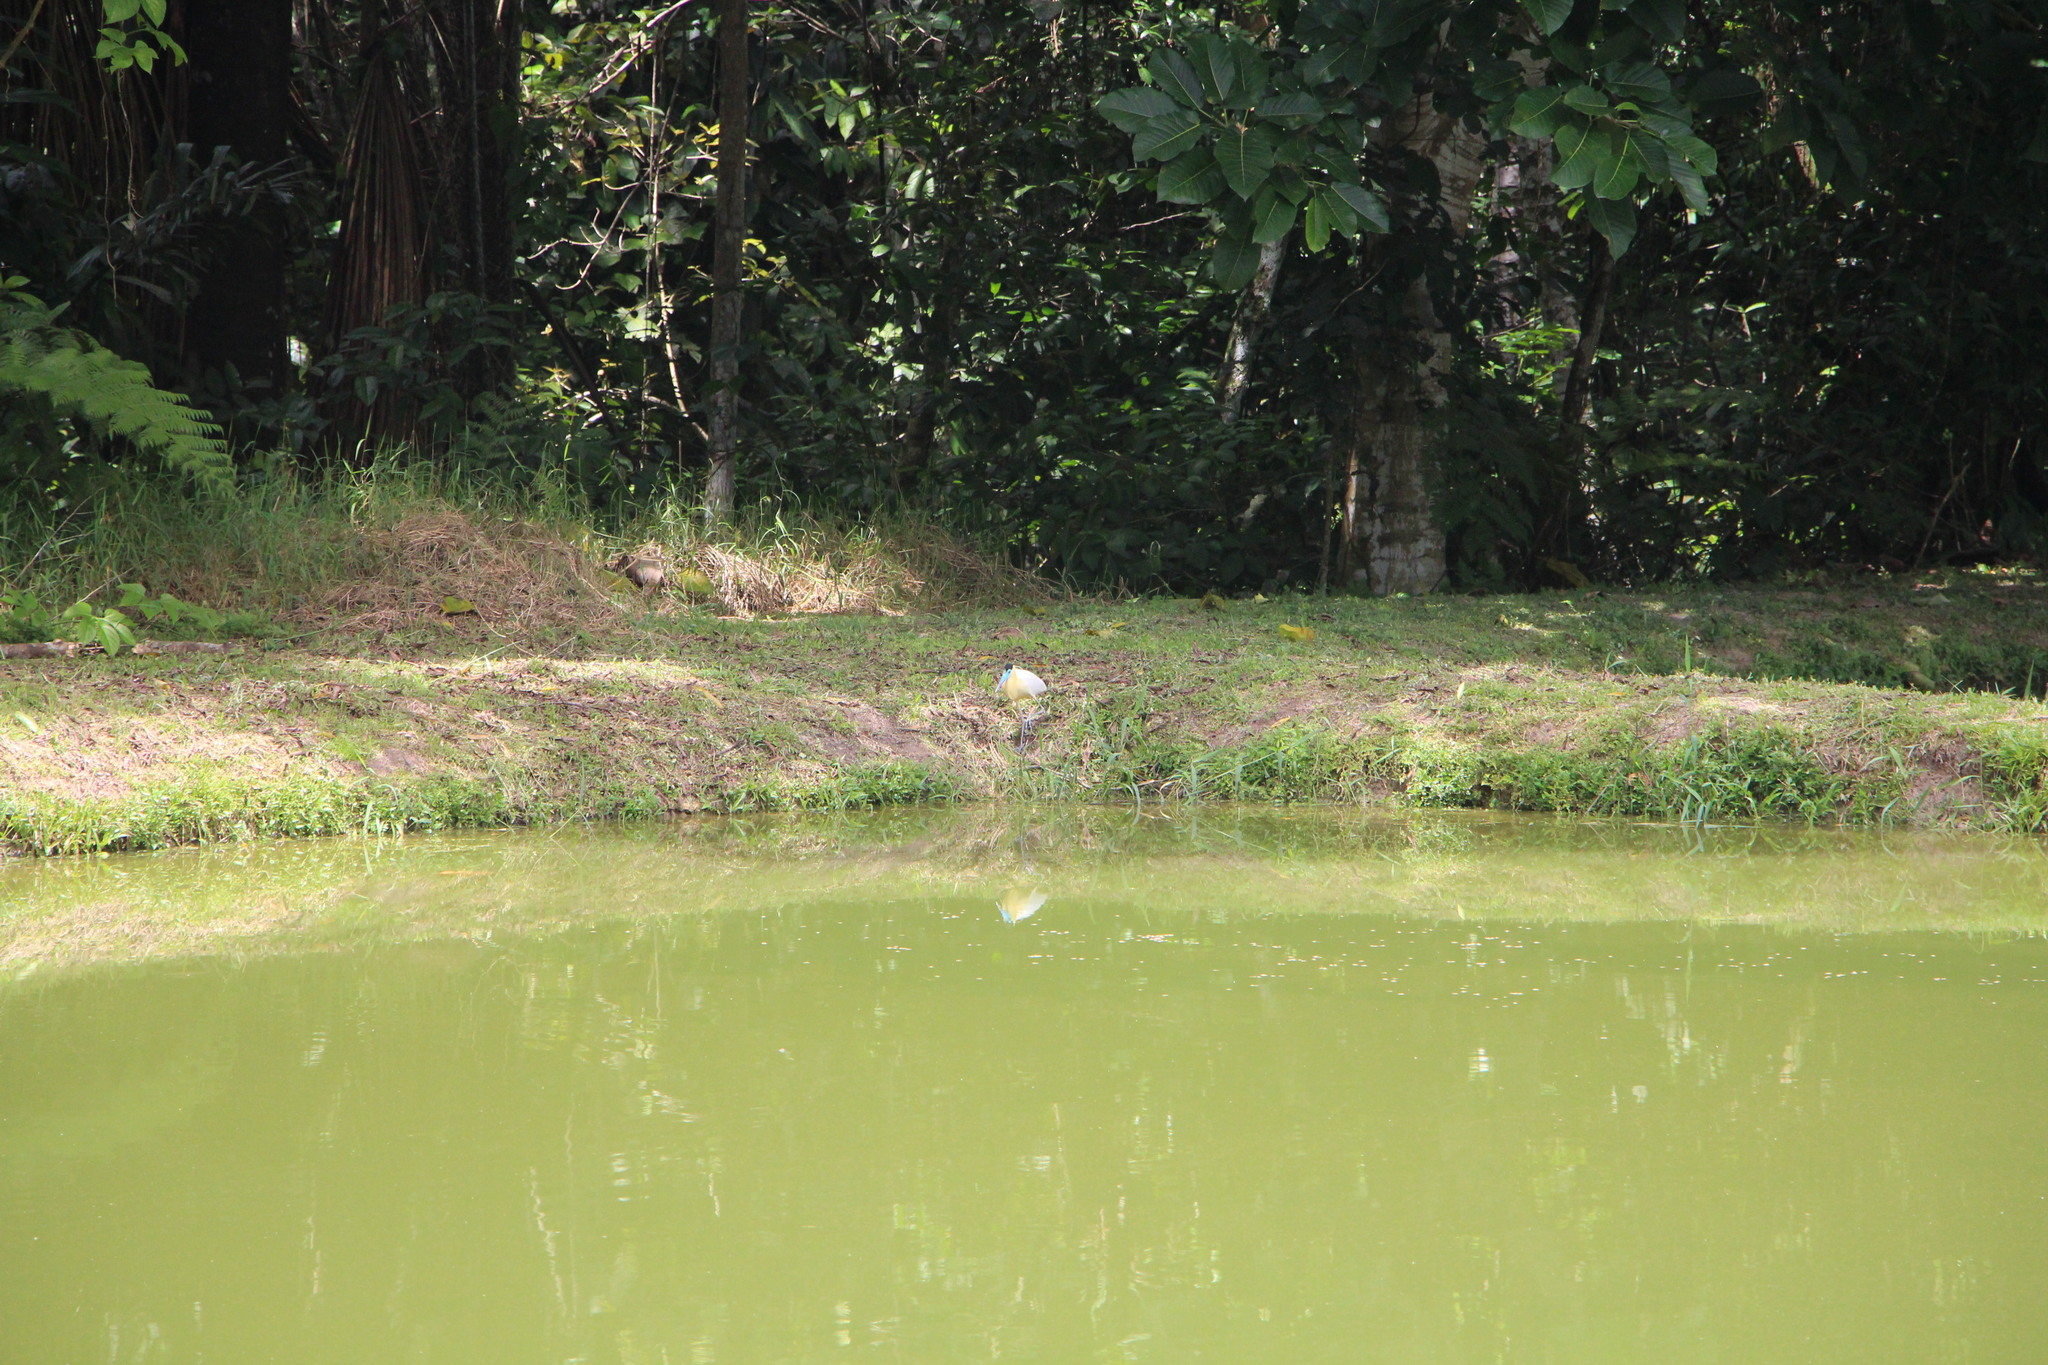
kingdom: Animalia
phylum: Chordata
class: Aves
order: Pelecaniformes
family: Ardeidae
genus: Pilherodius
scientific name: Pilherodius pileatus
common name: Capped heron
